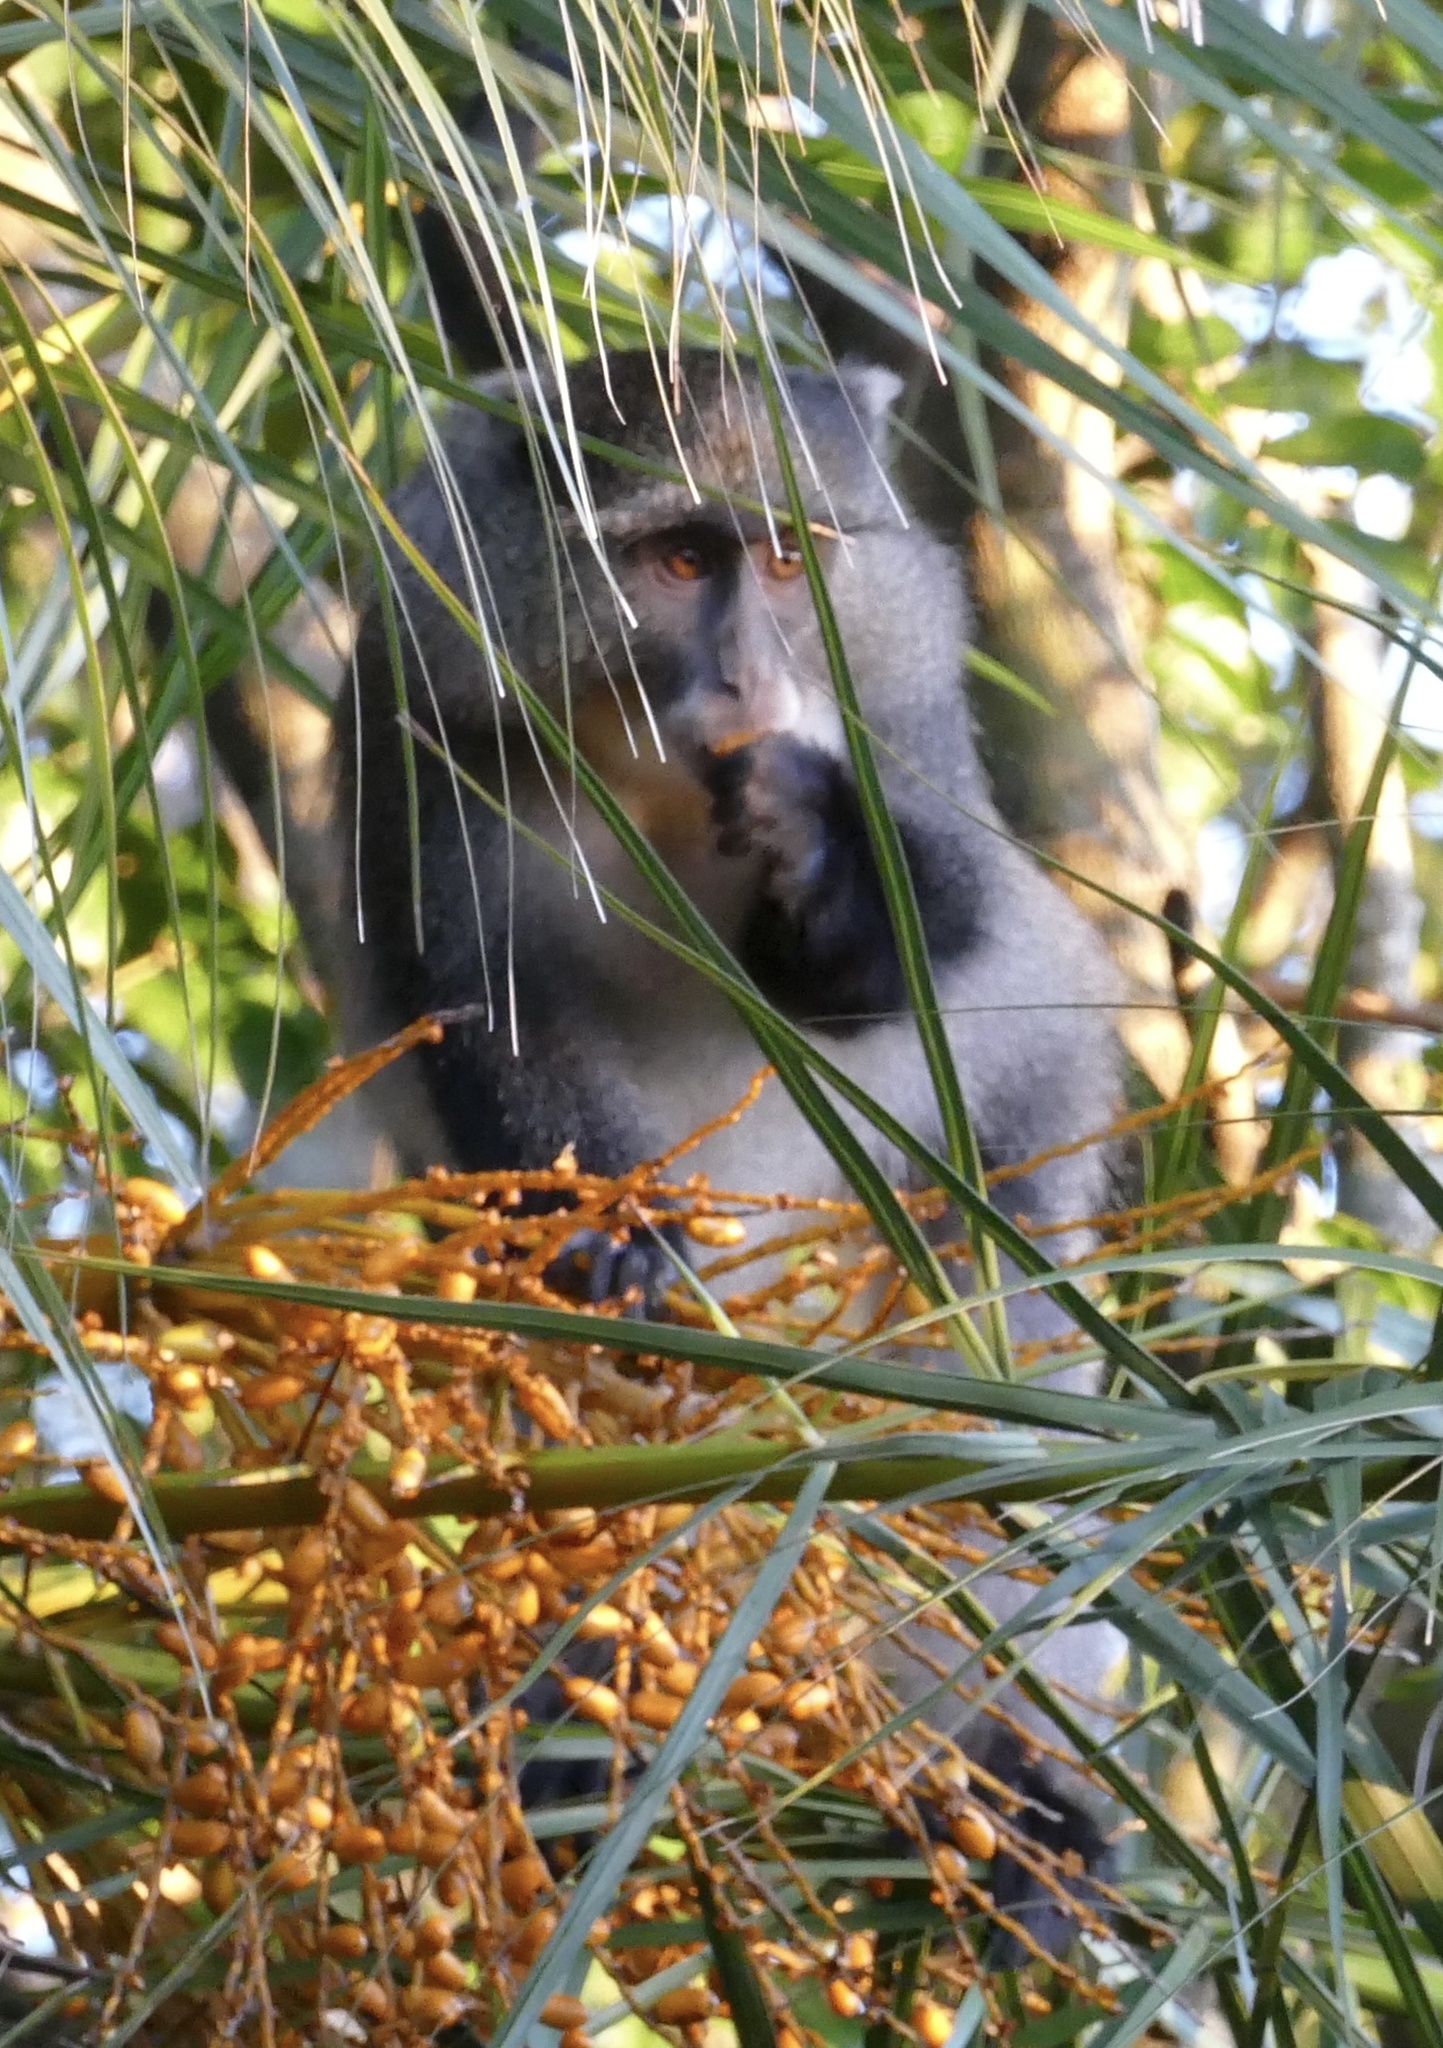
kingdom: Animalia
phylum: Chordata
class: Mammalia
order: Primates
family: Cercopithecidae
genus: Cercopithecus
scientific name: Cercopithecus mitis
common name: Blue monkey
